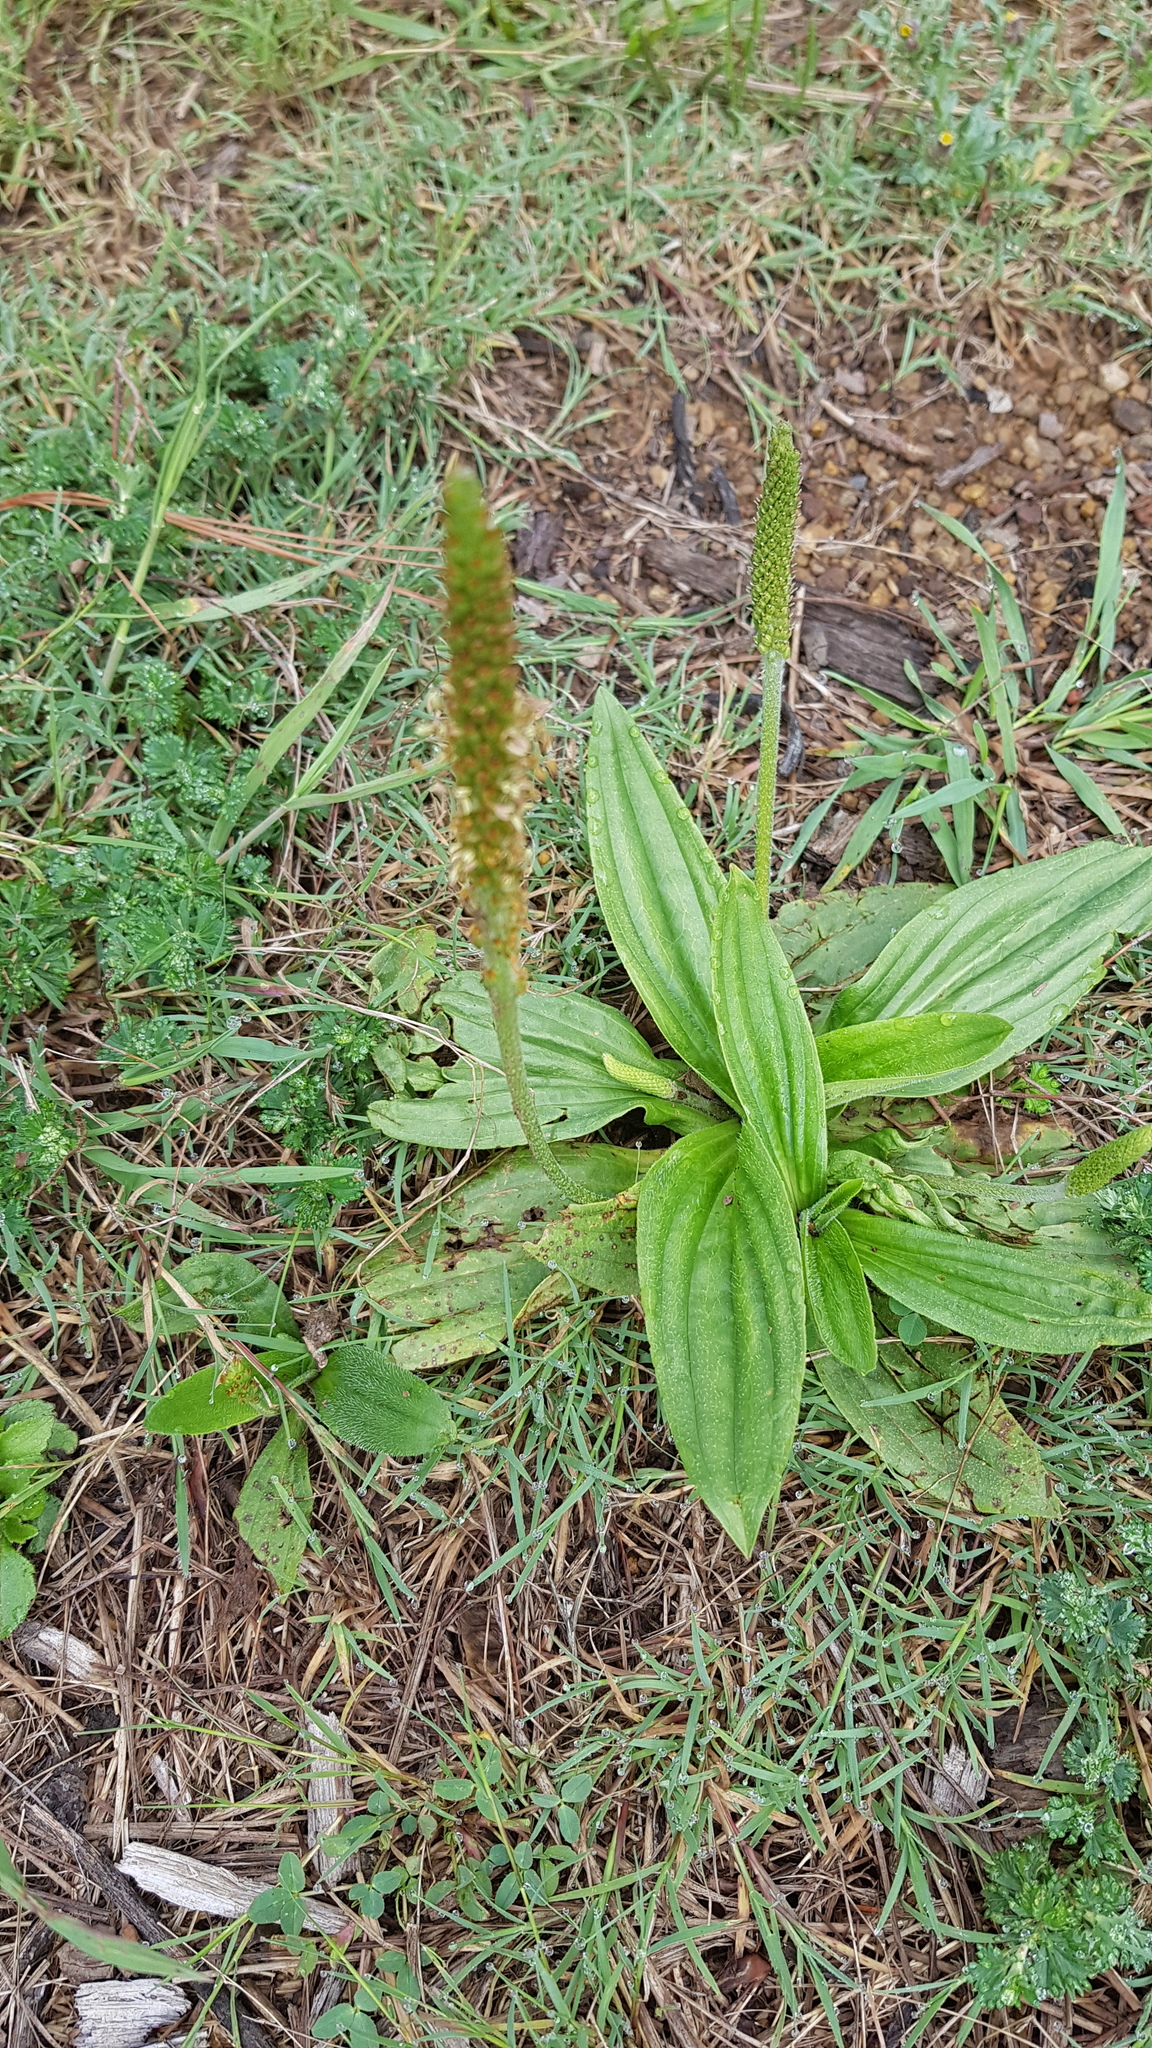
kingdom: Plantae
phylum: Tracheophyta
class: Magnoliopsida
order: Lamiales
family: Plantaginaceae
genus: Plantago
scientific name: Plantago australis
